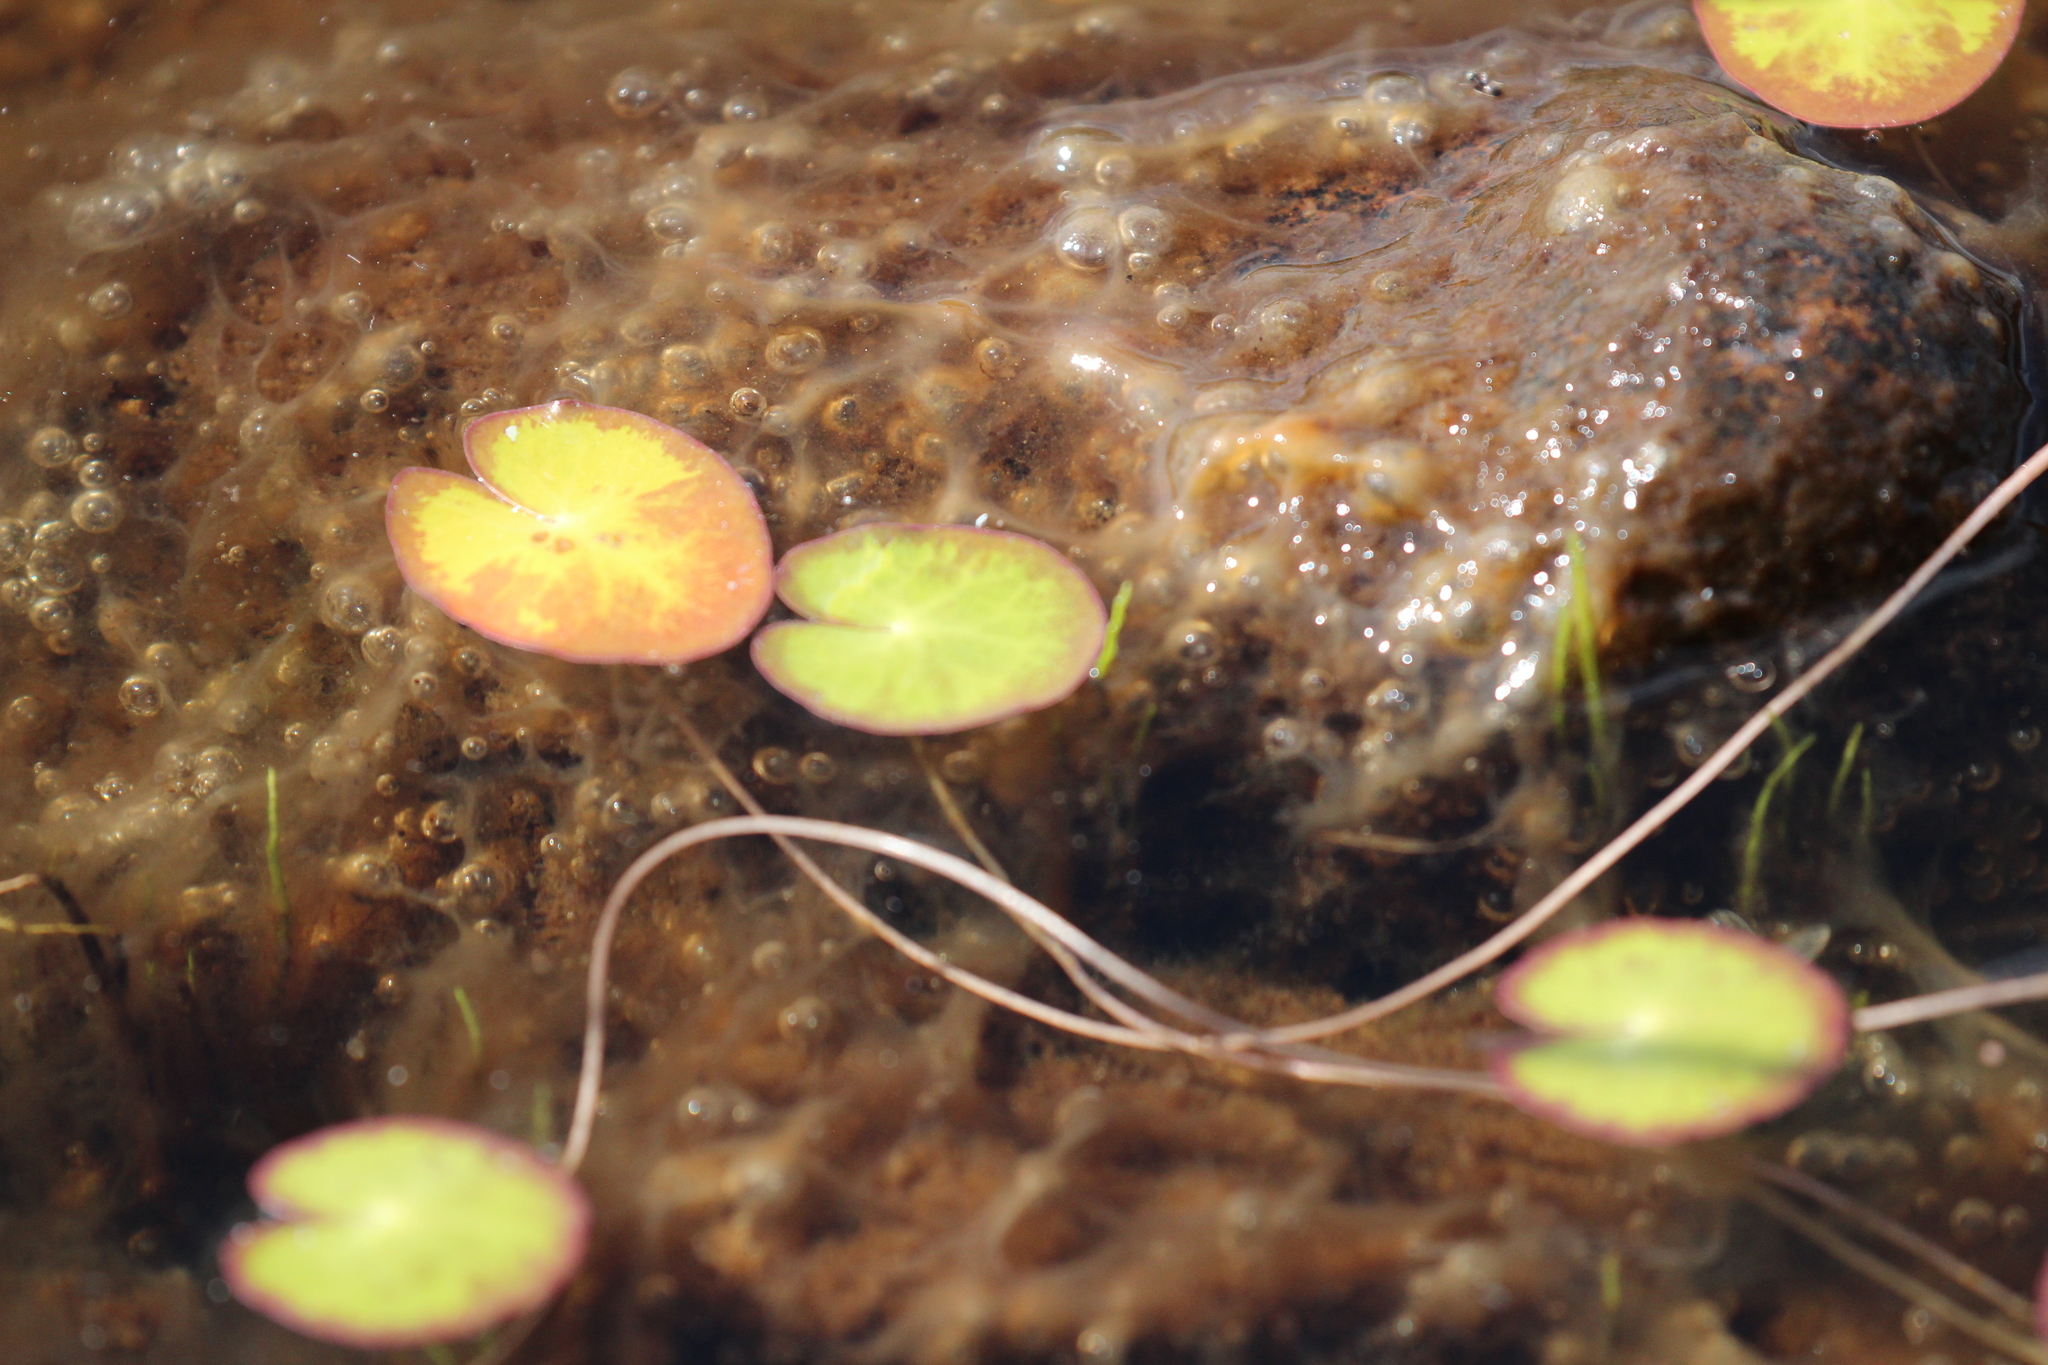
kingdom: Plantae
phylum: Tracheophyta
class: Magnoliopsida
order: Asterales
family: Menyanthaceae
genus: Nymphoides
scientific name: Nymphoides cordata
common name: Eight-angled floatingheart
